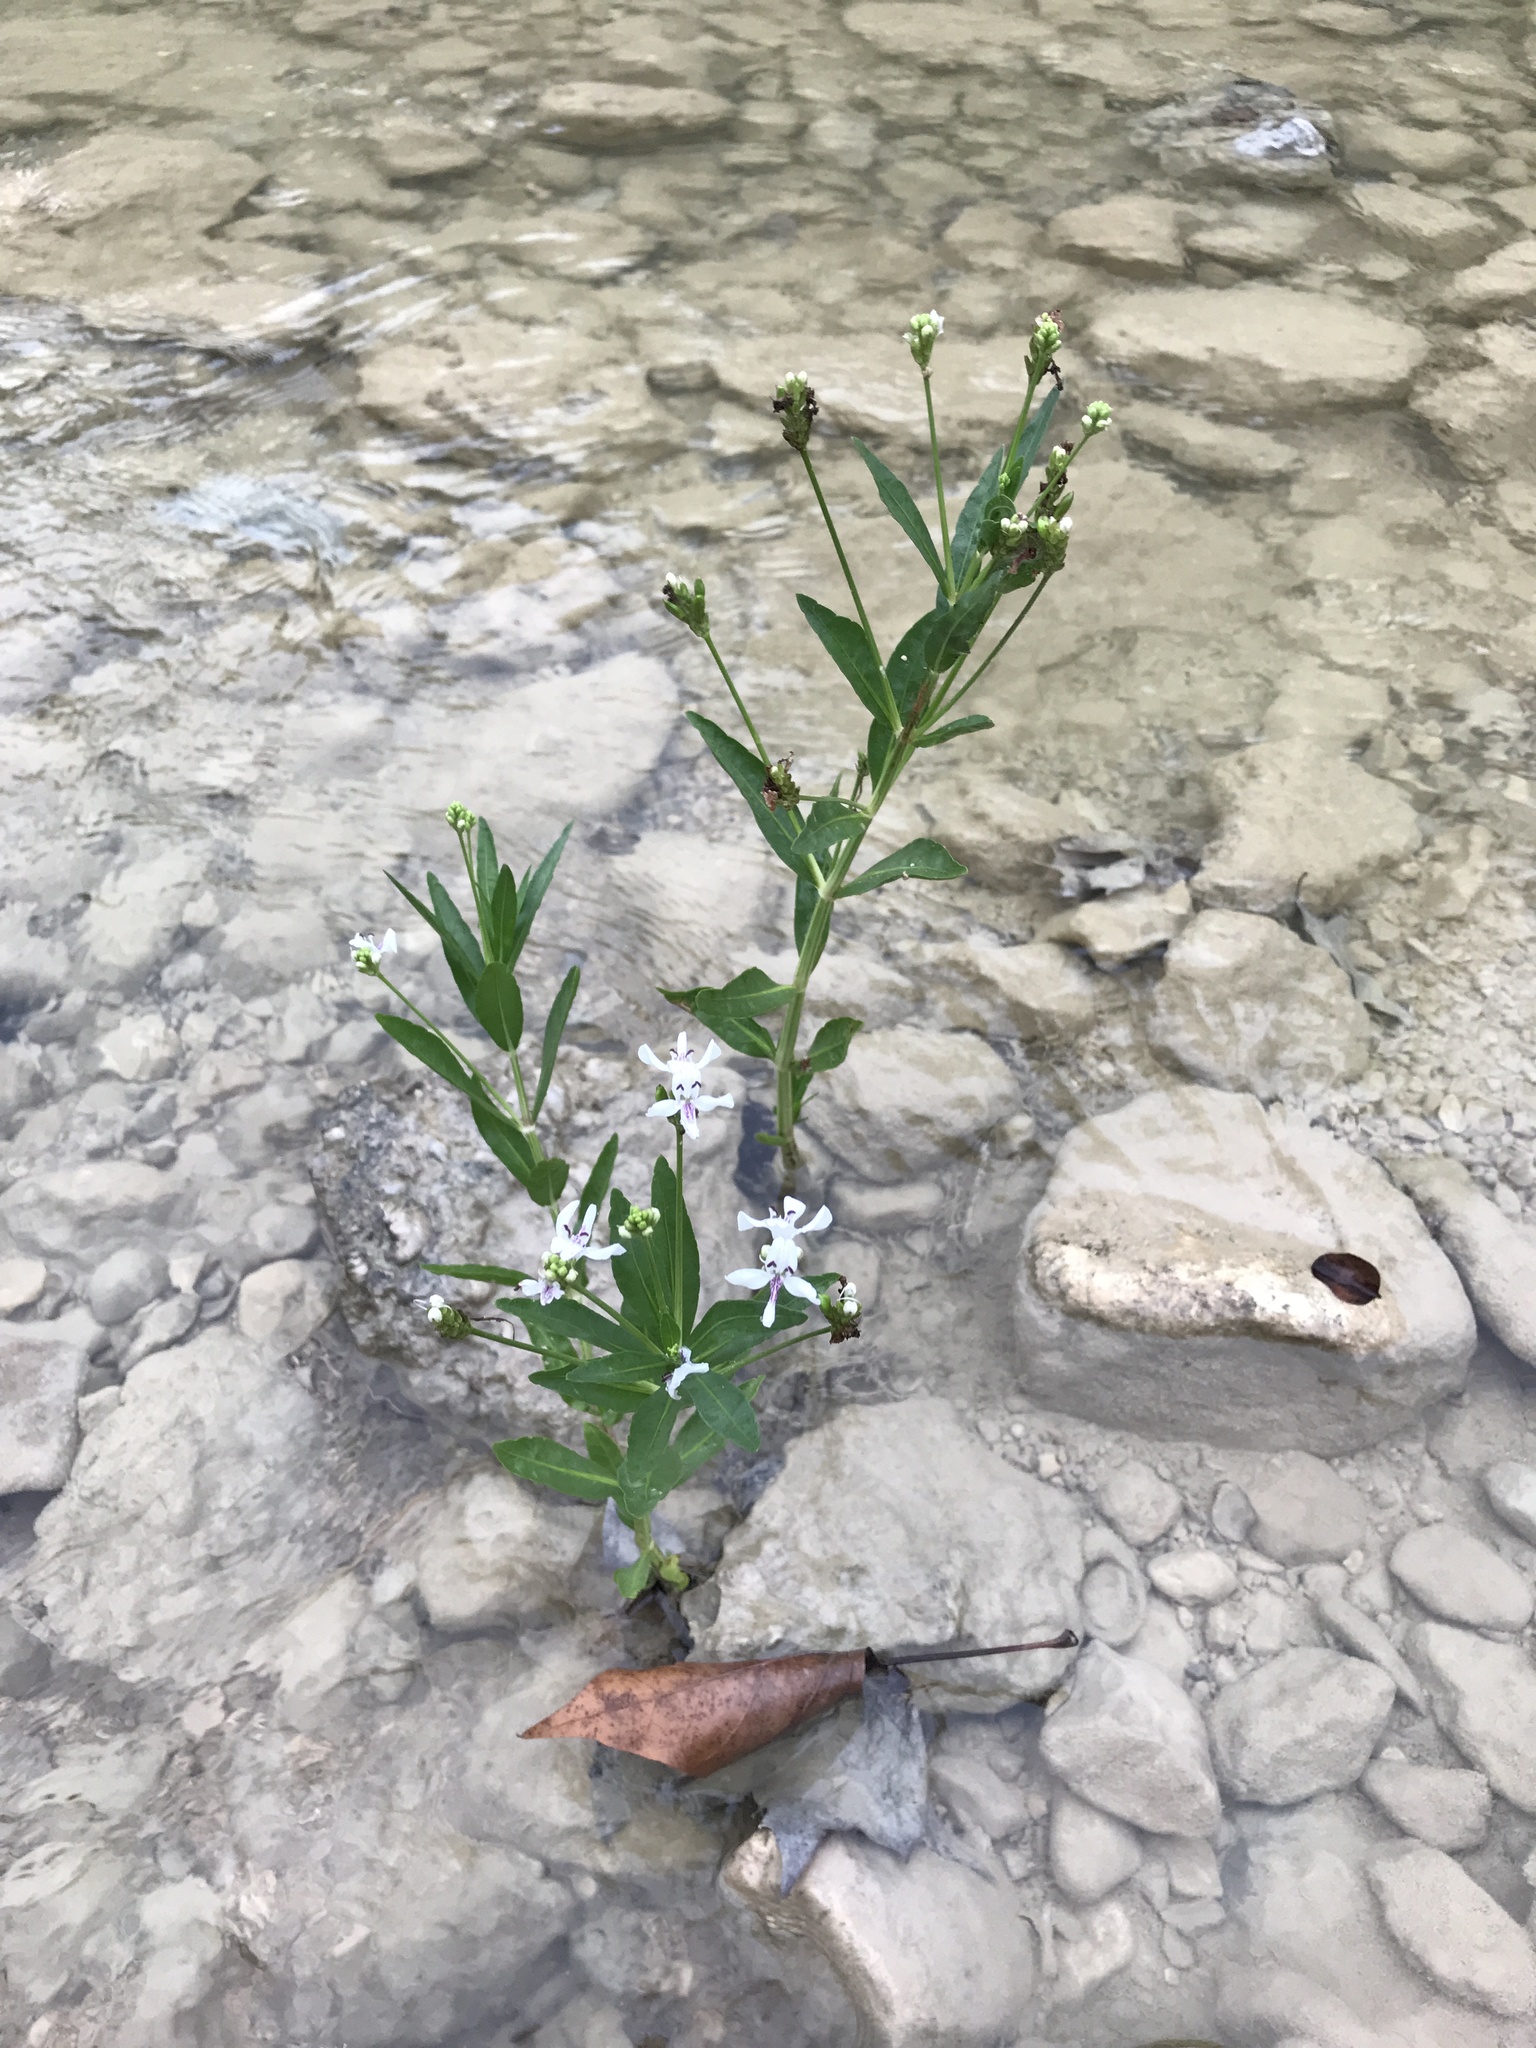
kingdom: Plantae
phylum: Tracheophyta
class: Magnoliopsida
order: Lamiales
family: Acanthaceae
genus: Dianthera
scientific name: Dianthera americana
